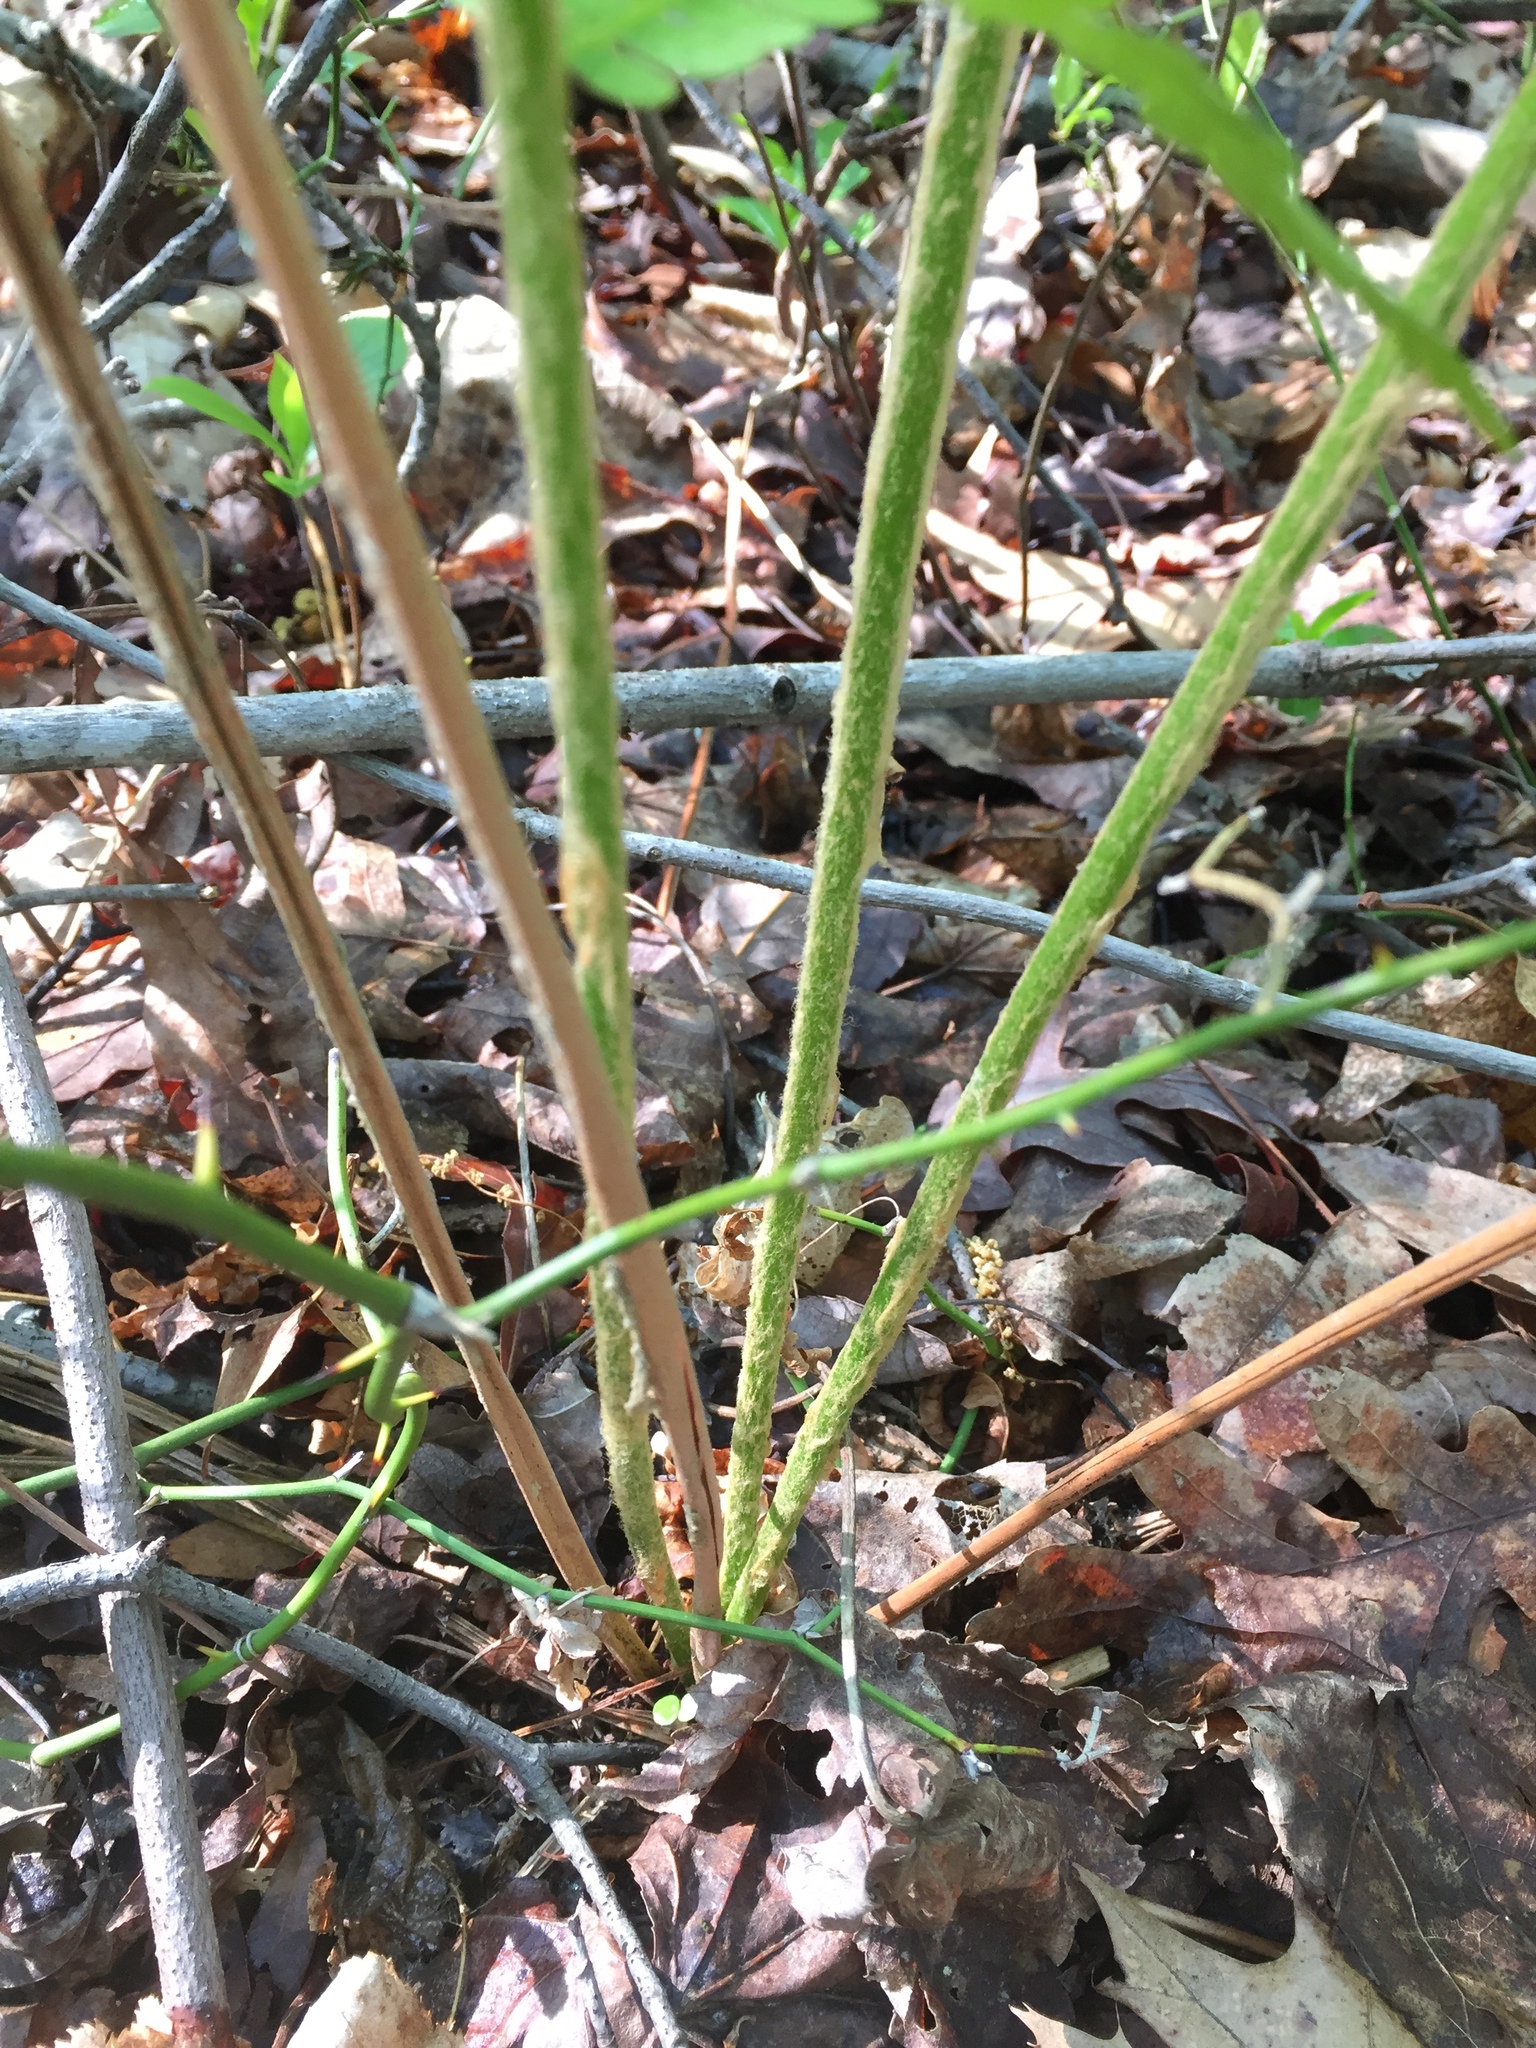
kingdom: Plantae
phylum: Tracheophyta
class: Polypodiopsida
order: Osmundales
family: Osmundaceae
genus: Osmundastrum
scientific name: Osmundastrum cinnamomeum
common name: Cinnamon fern
